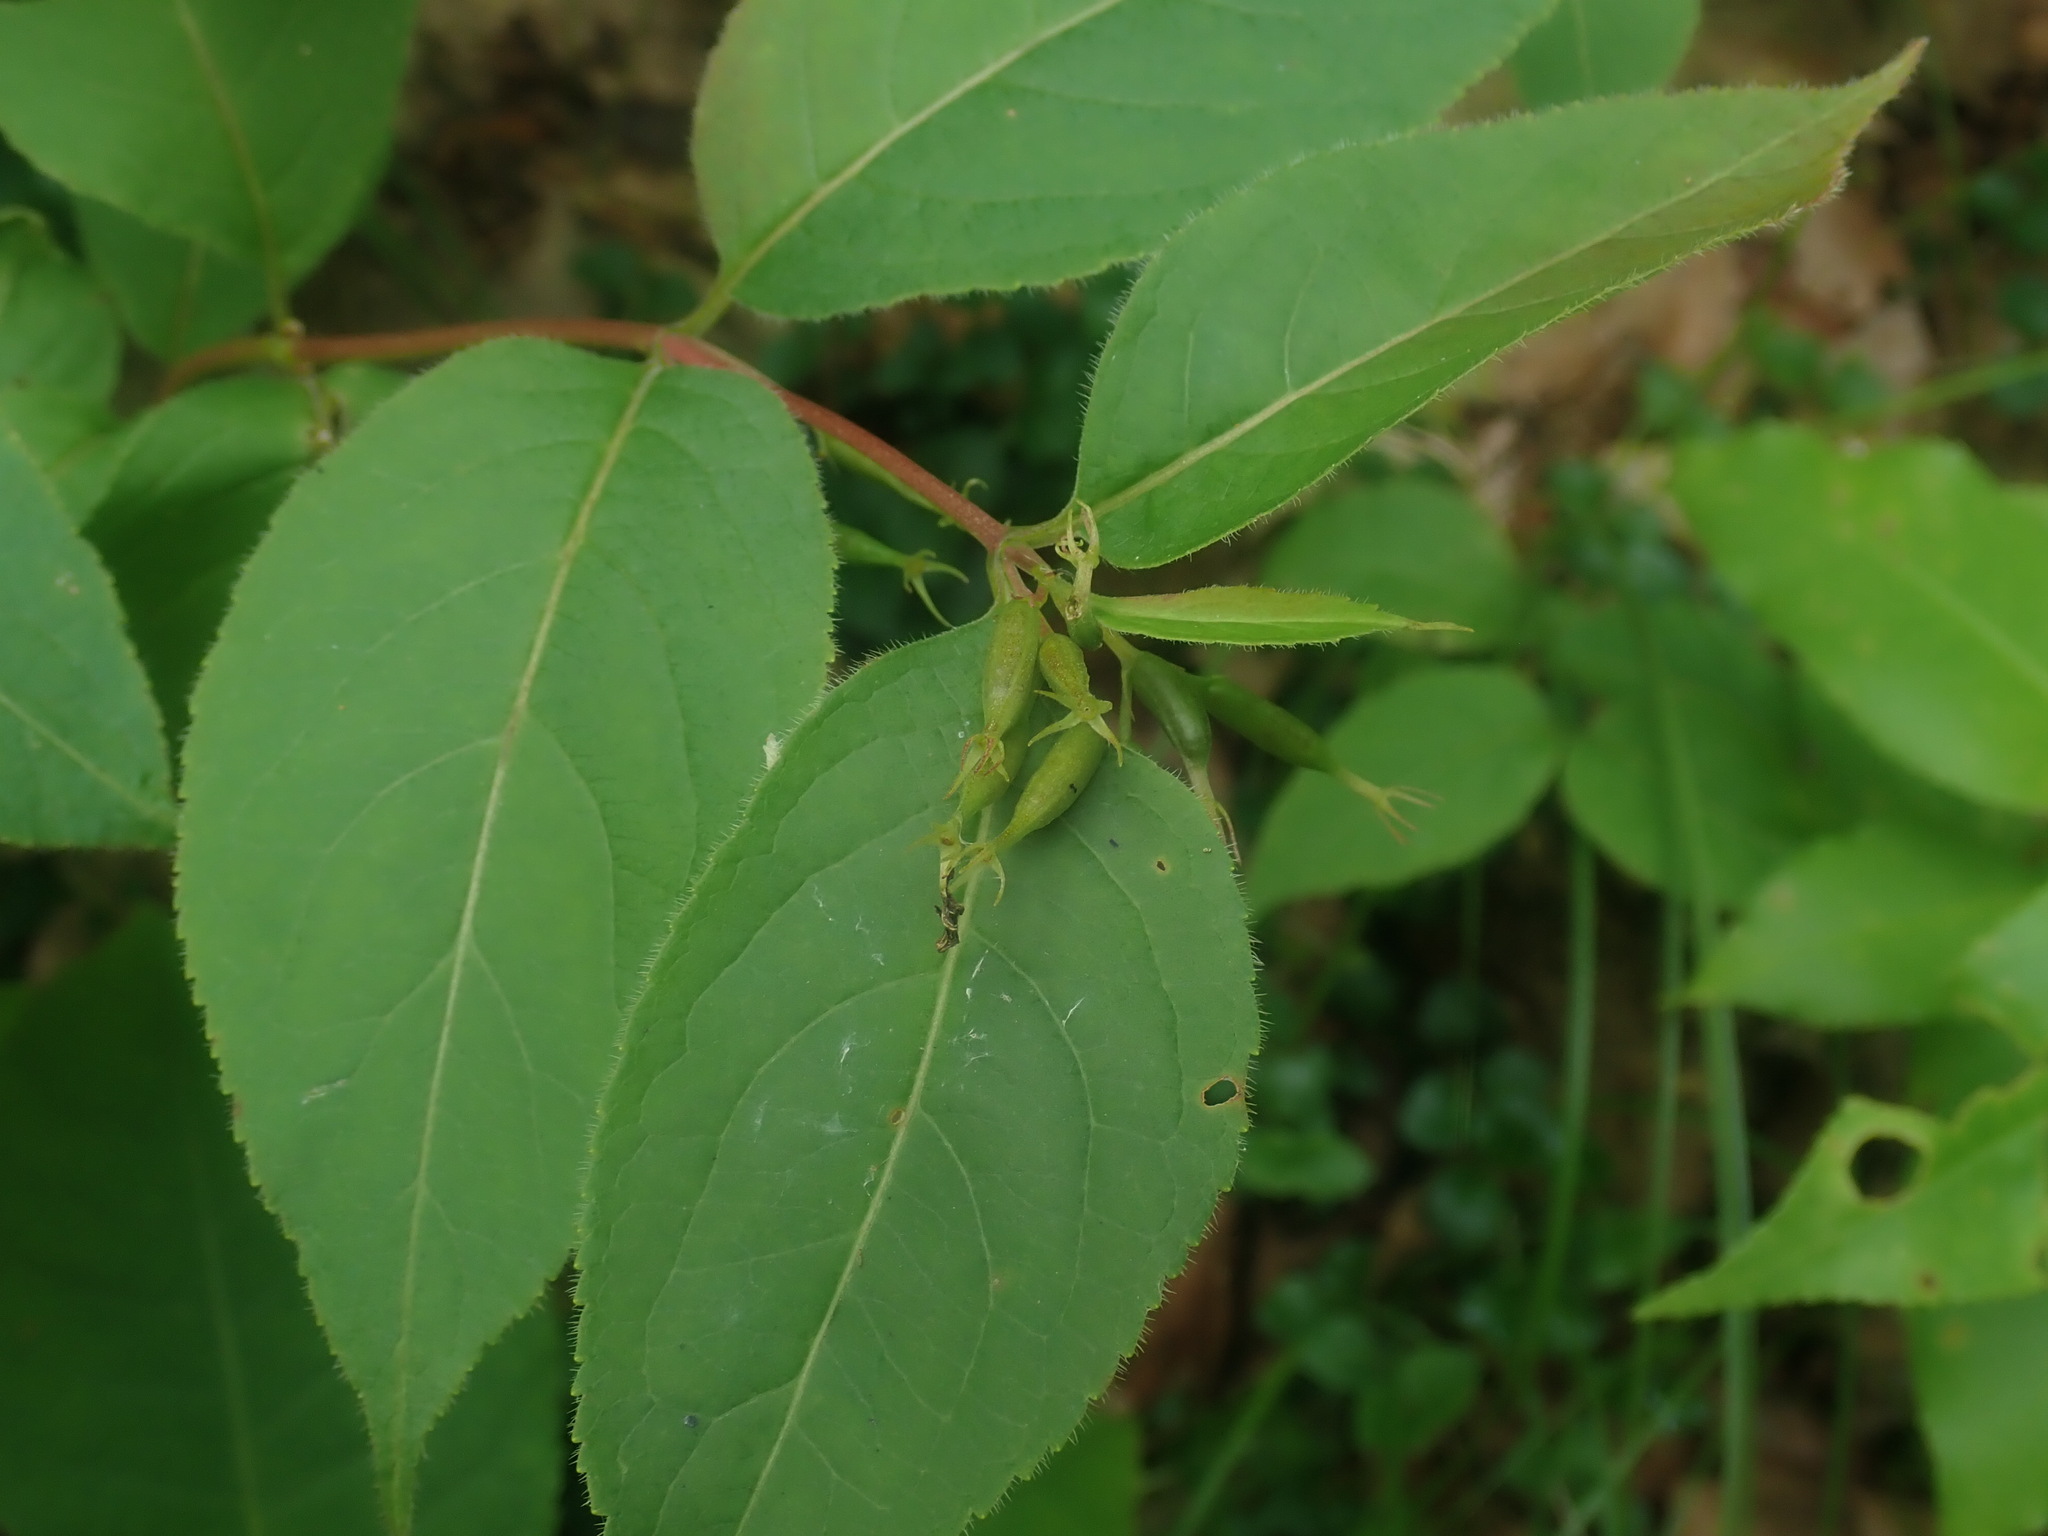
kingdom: Plantae
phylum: Tracheophyta
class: Magnoliopsida
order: Dipsacales
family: Caprifoliaceae
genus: Diervilla
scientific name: Diervilla lonicera
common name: Bush-honeysuckle
